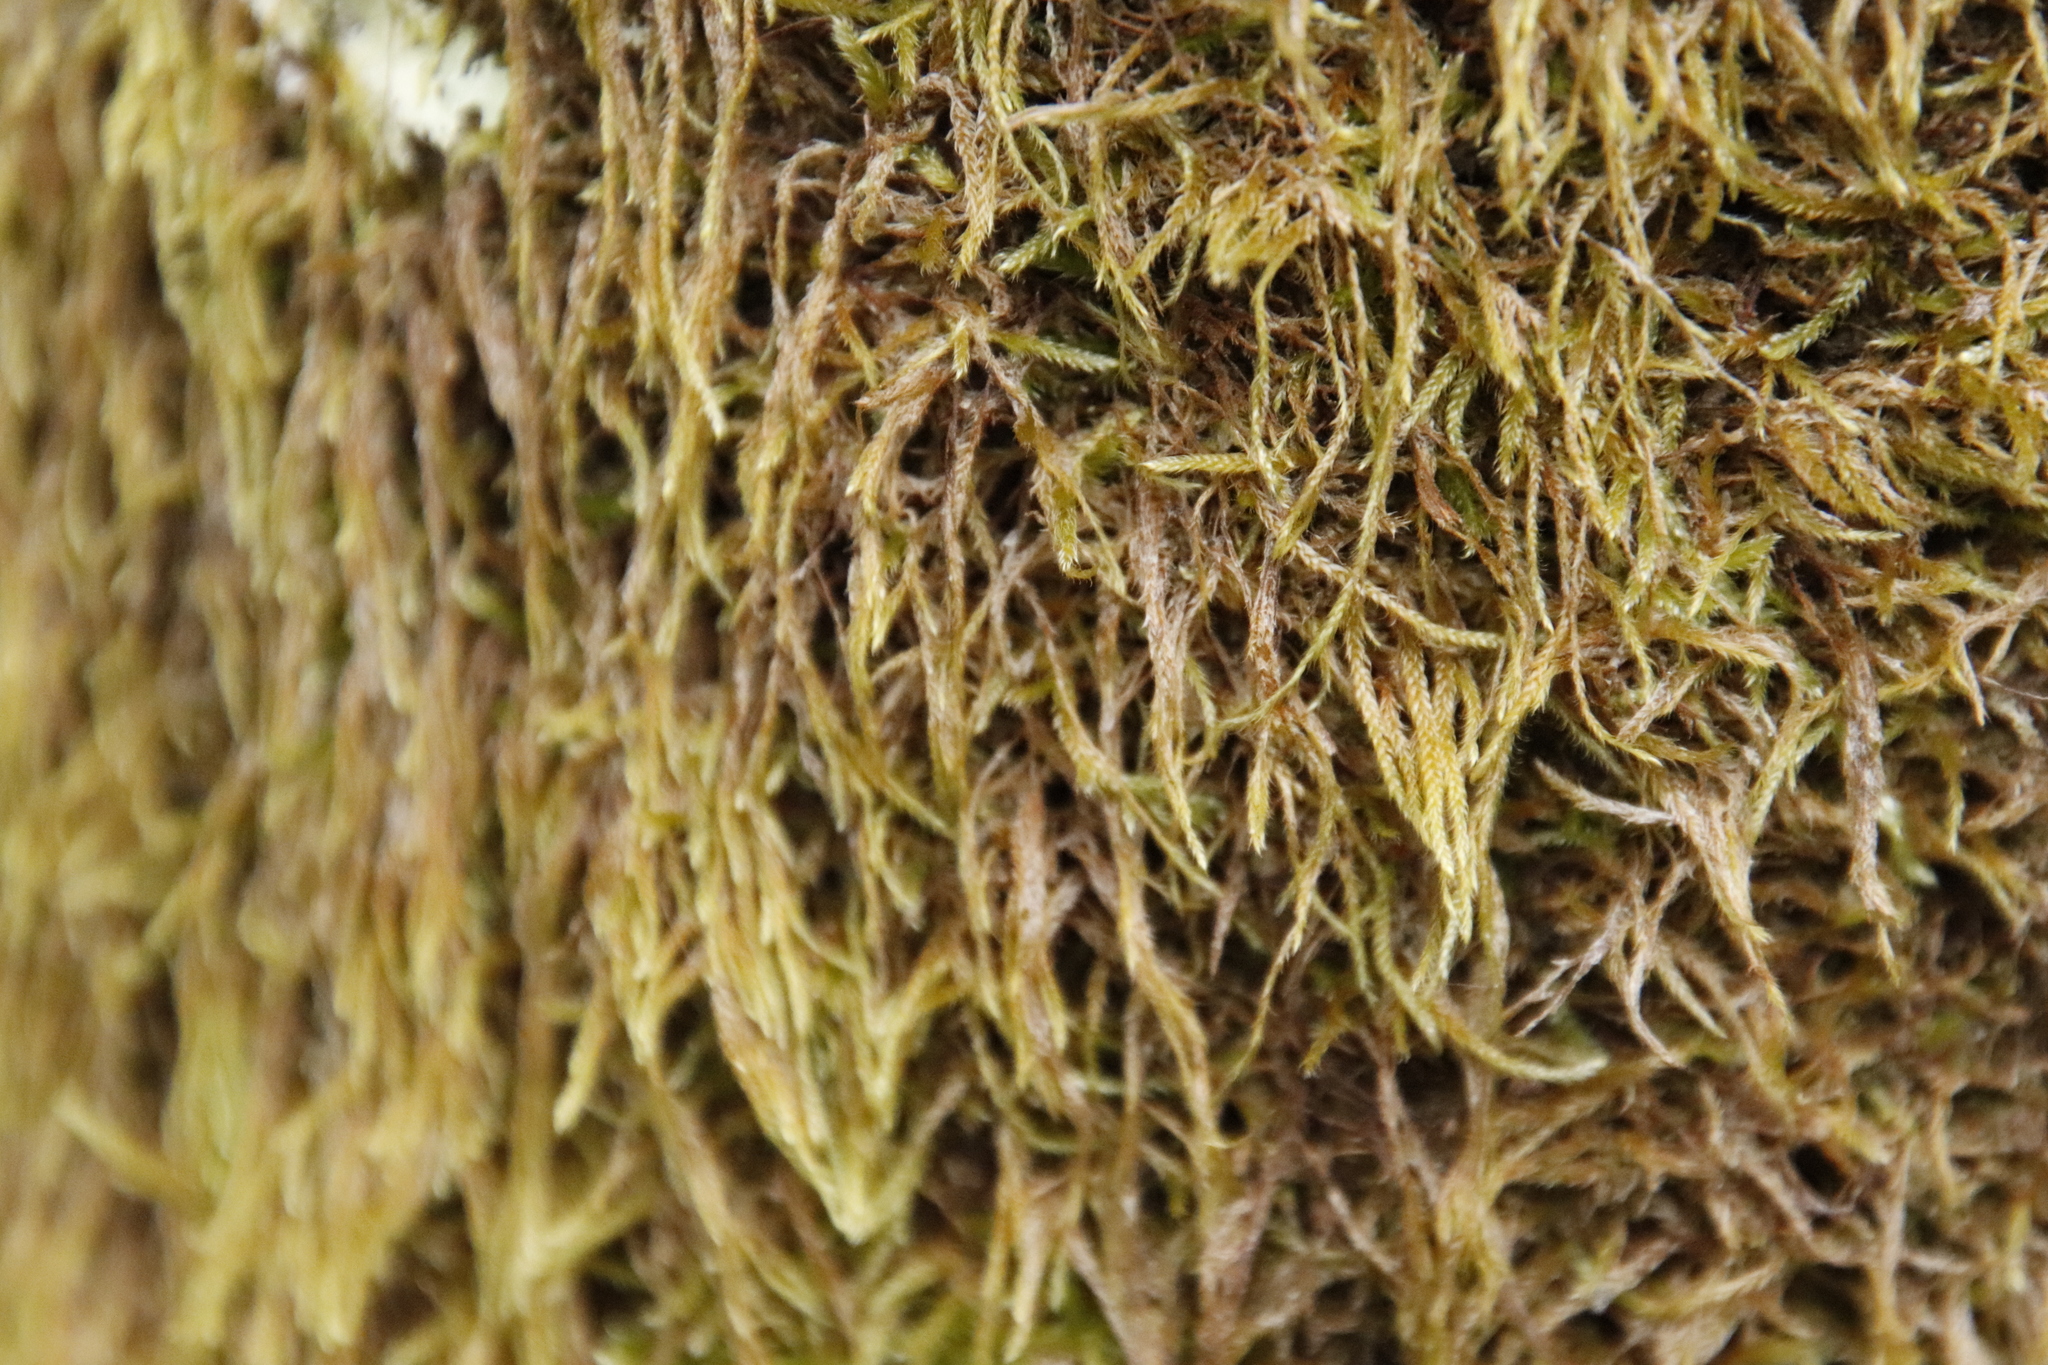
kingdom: Plantae
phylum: Bryophyta
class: Bryopsida
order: Hypnales
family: Hypnaceae
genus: Hypnum
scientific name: Hypnum cupressiforme
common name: Cypress-leaved plait-moss
